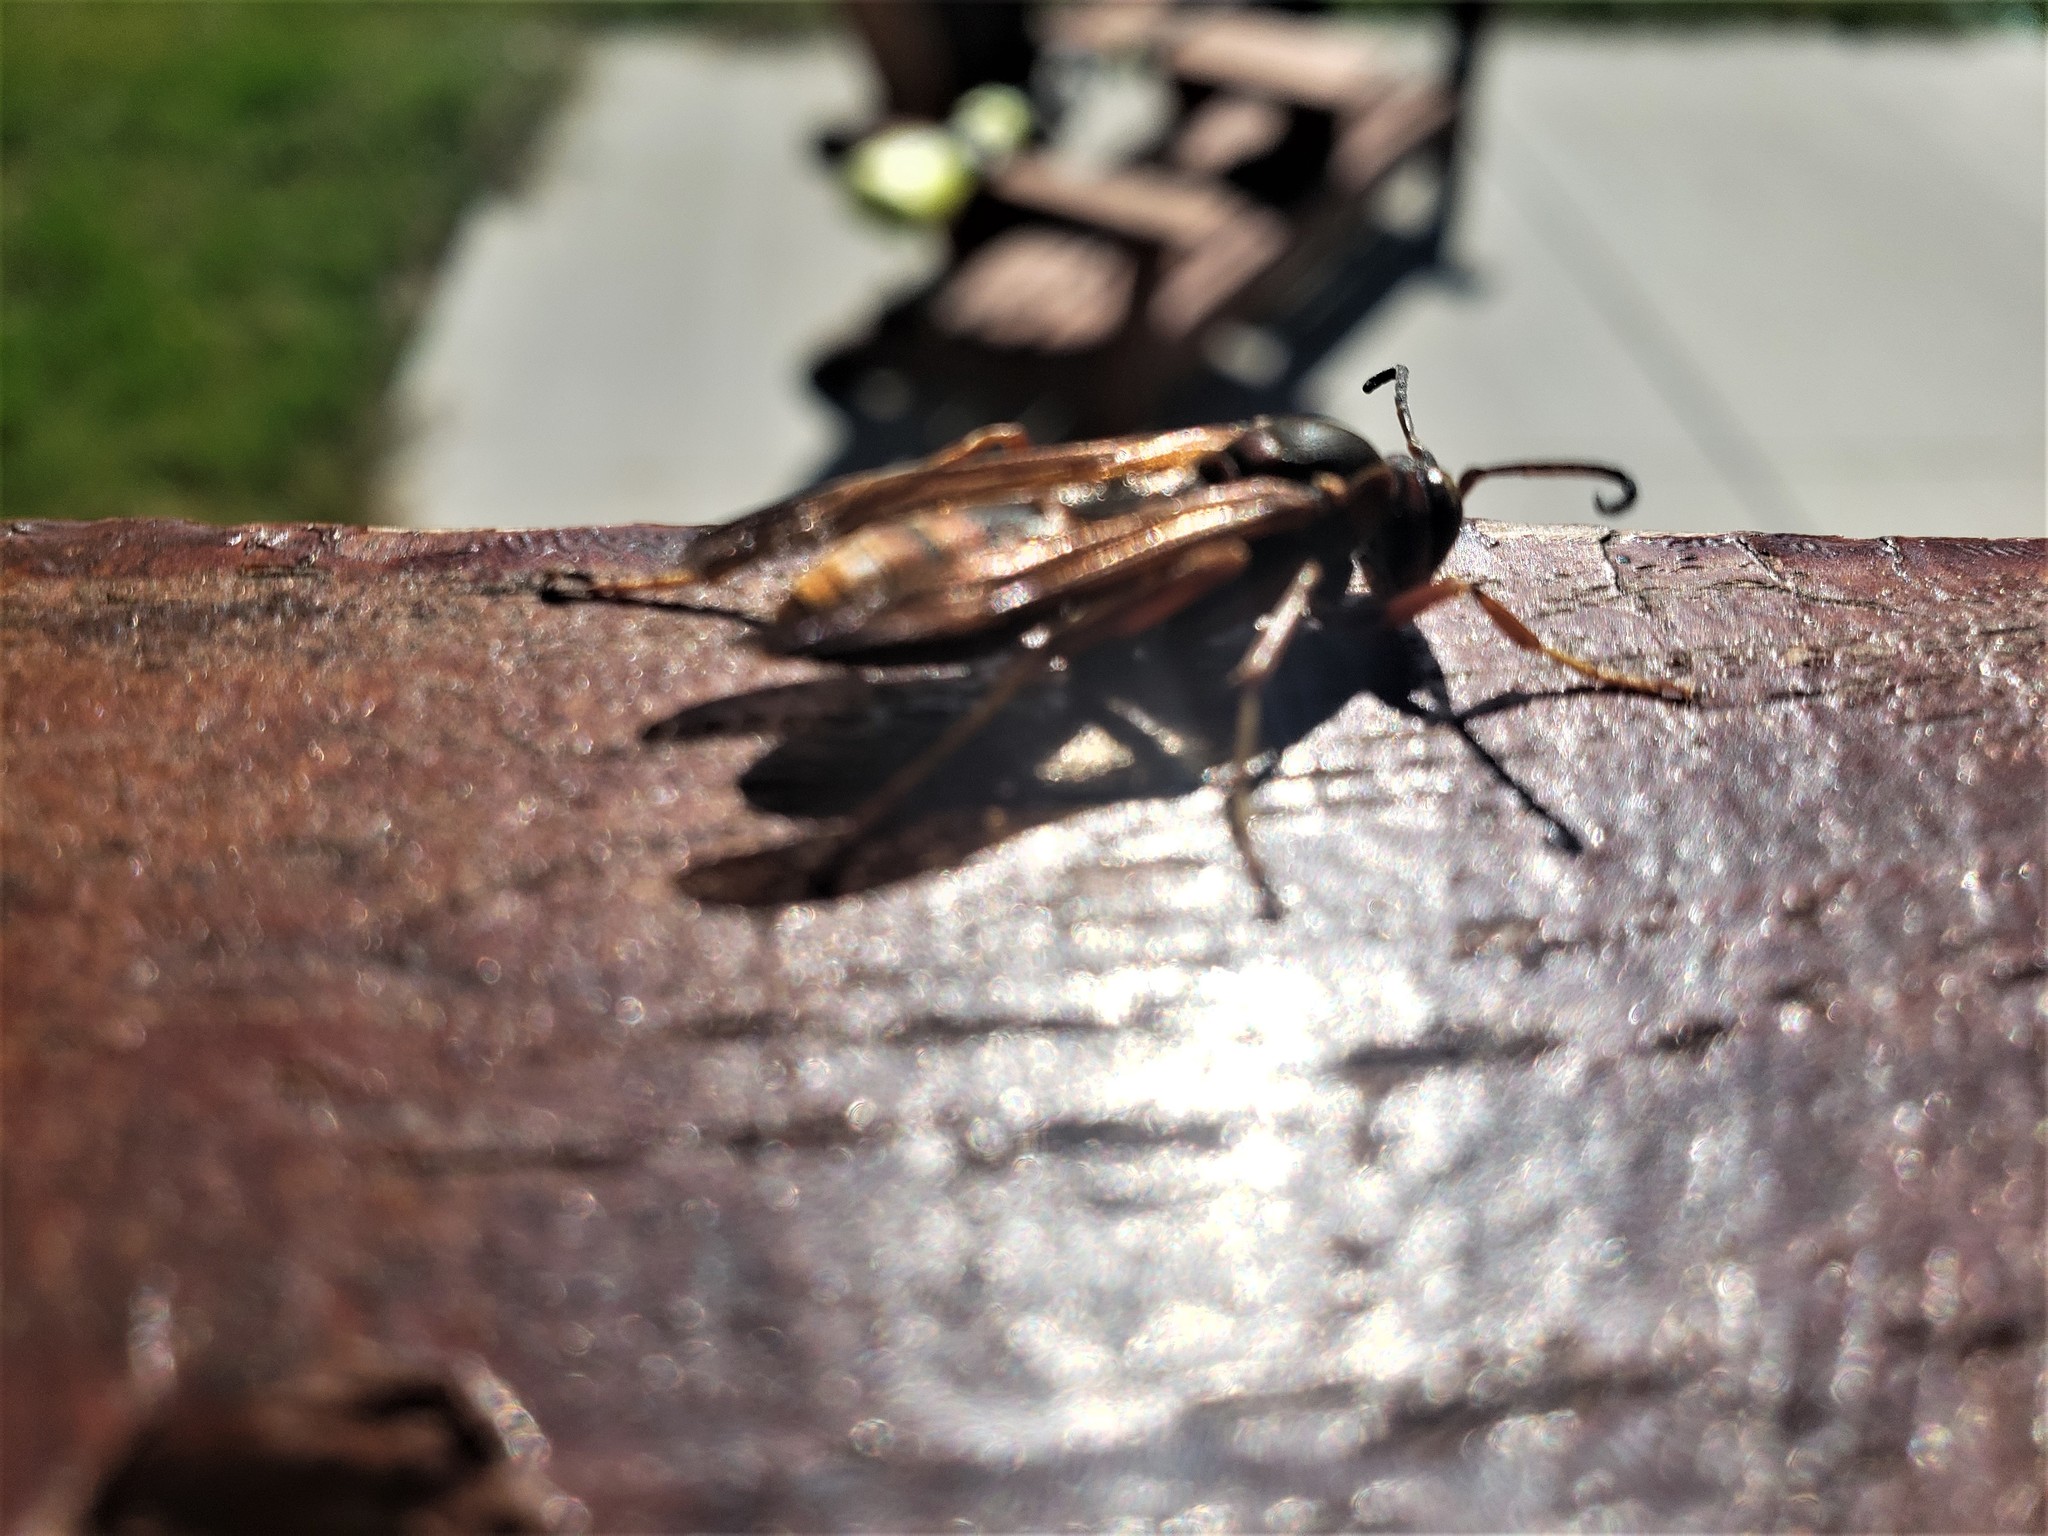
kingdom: Animalia
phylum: Arthropoda
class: Insecta
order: Hymenoptera
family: Eumenidae
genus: Polistes
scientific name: Polistes fuscatus
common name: Dark paper wasp
